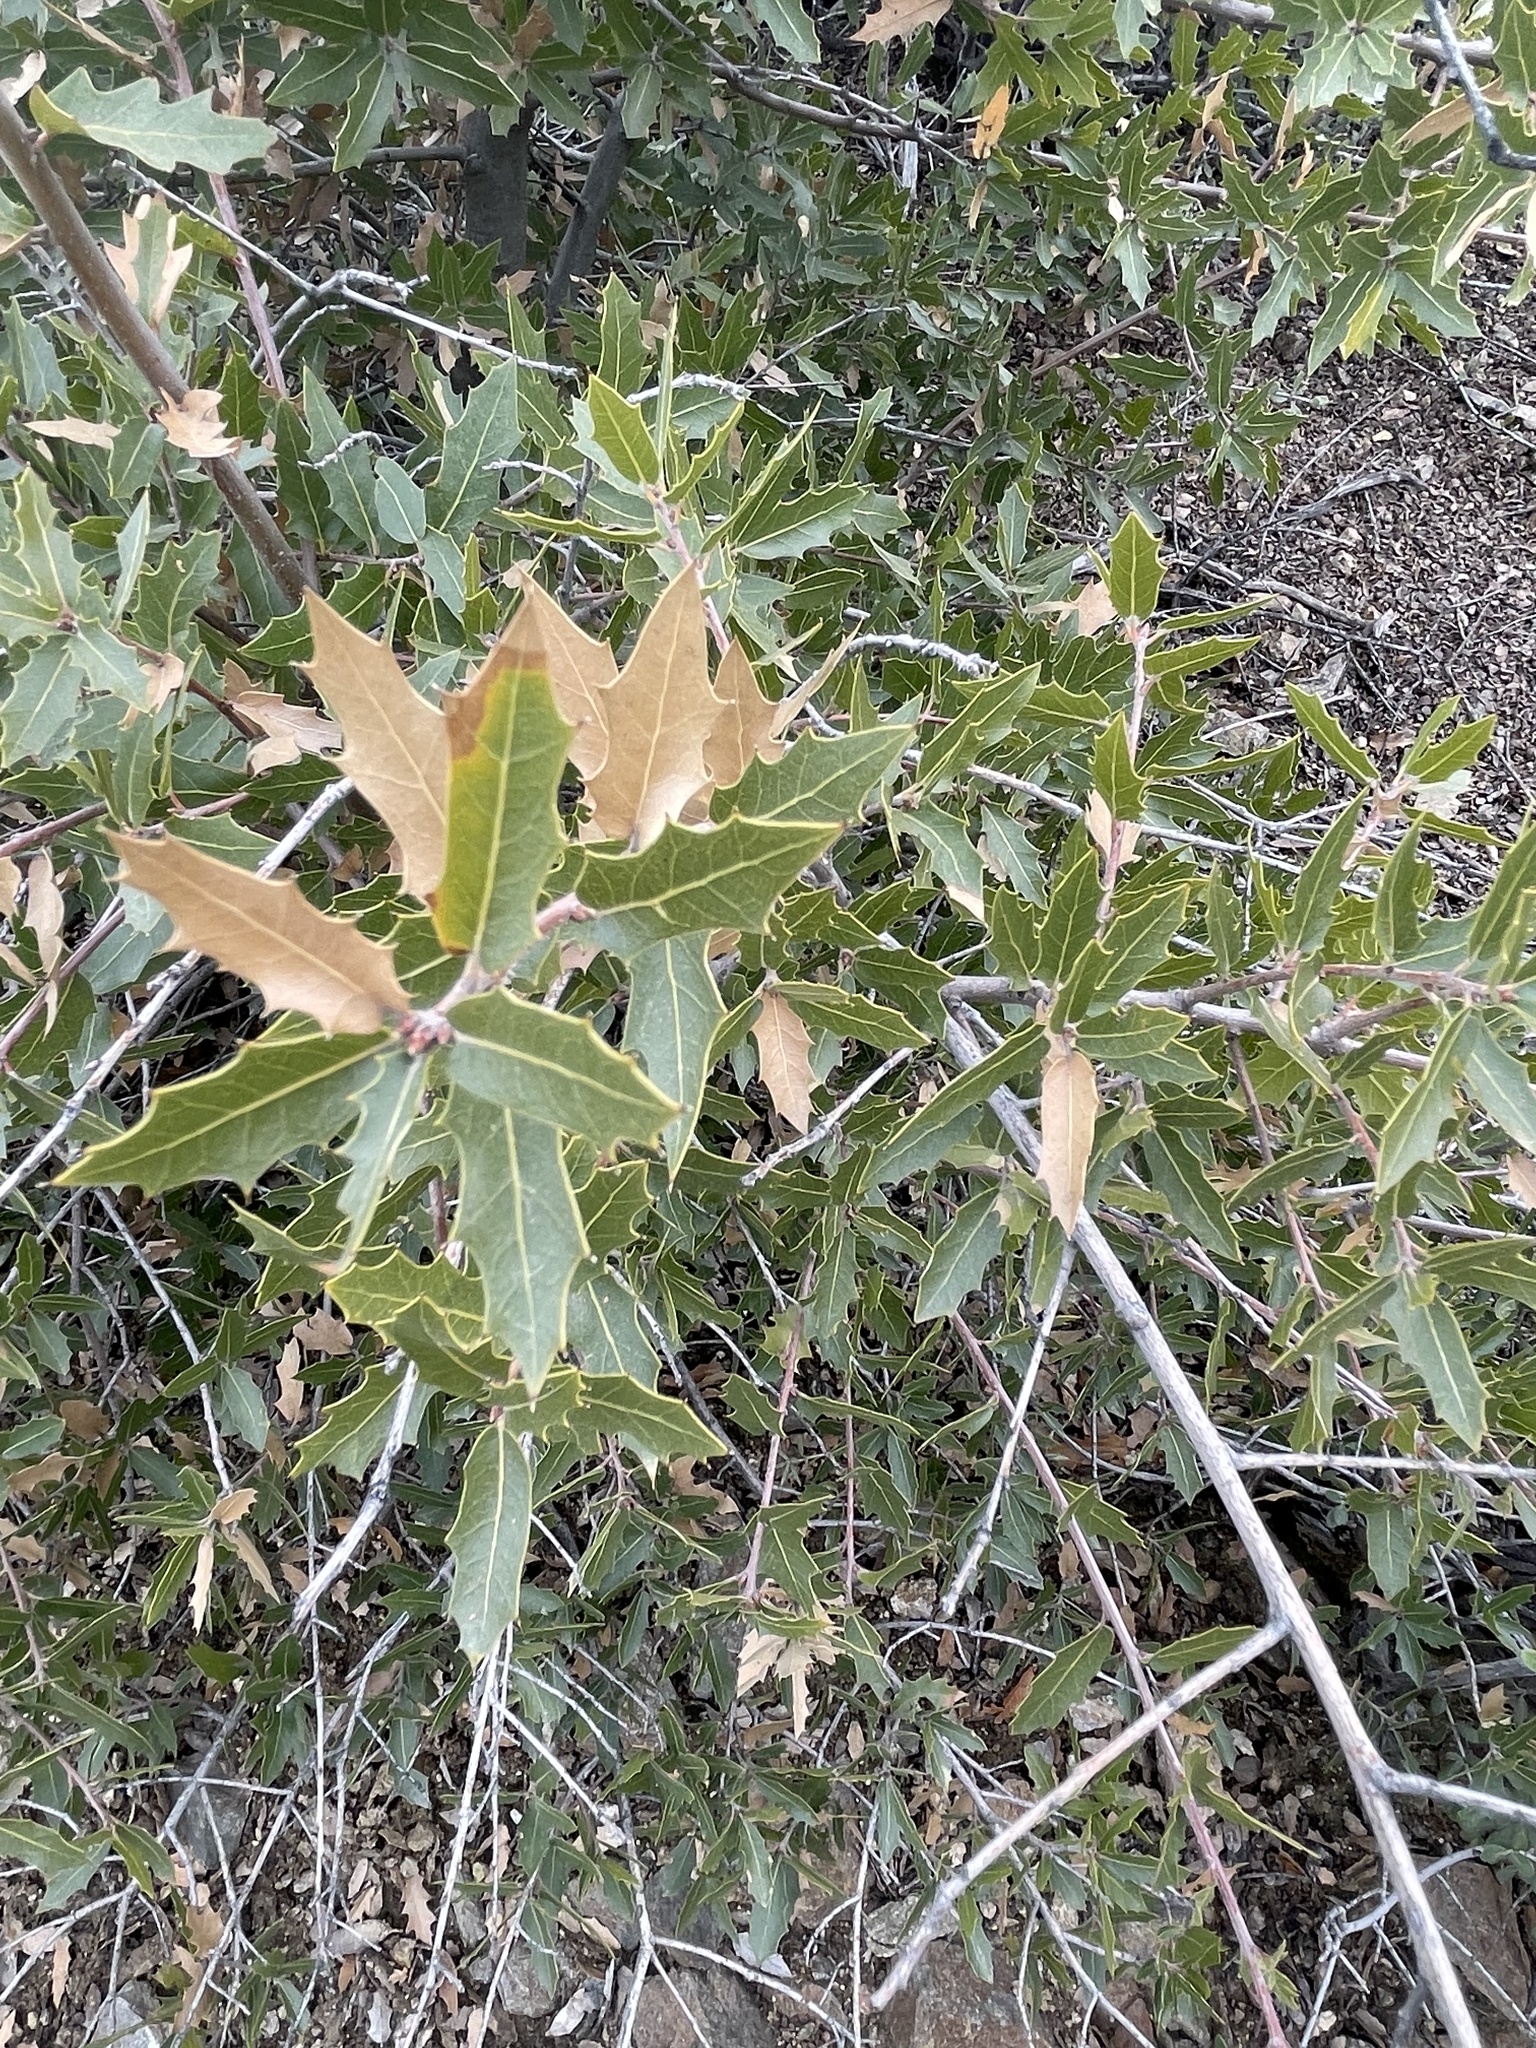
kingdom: Plantae
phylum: Tracheophyta
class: Magnoliopsida
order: Fagales
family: Fagaceae
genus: Quercus
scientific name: Quercus emoryi
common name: Emory oak
